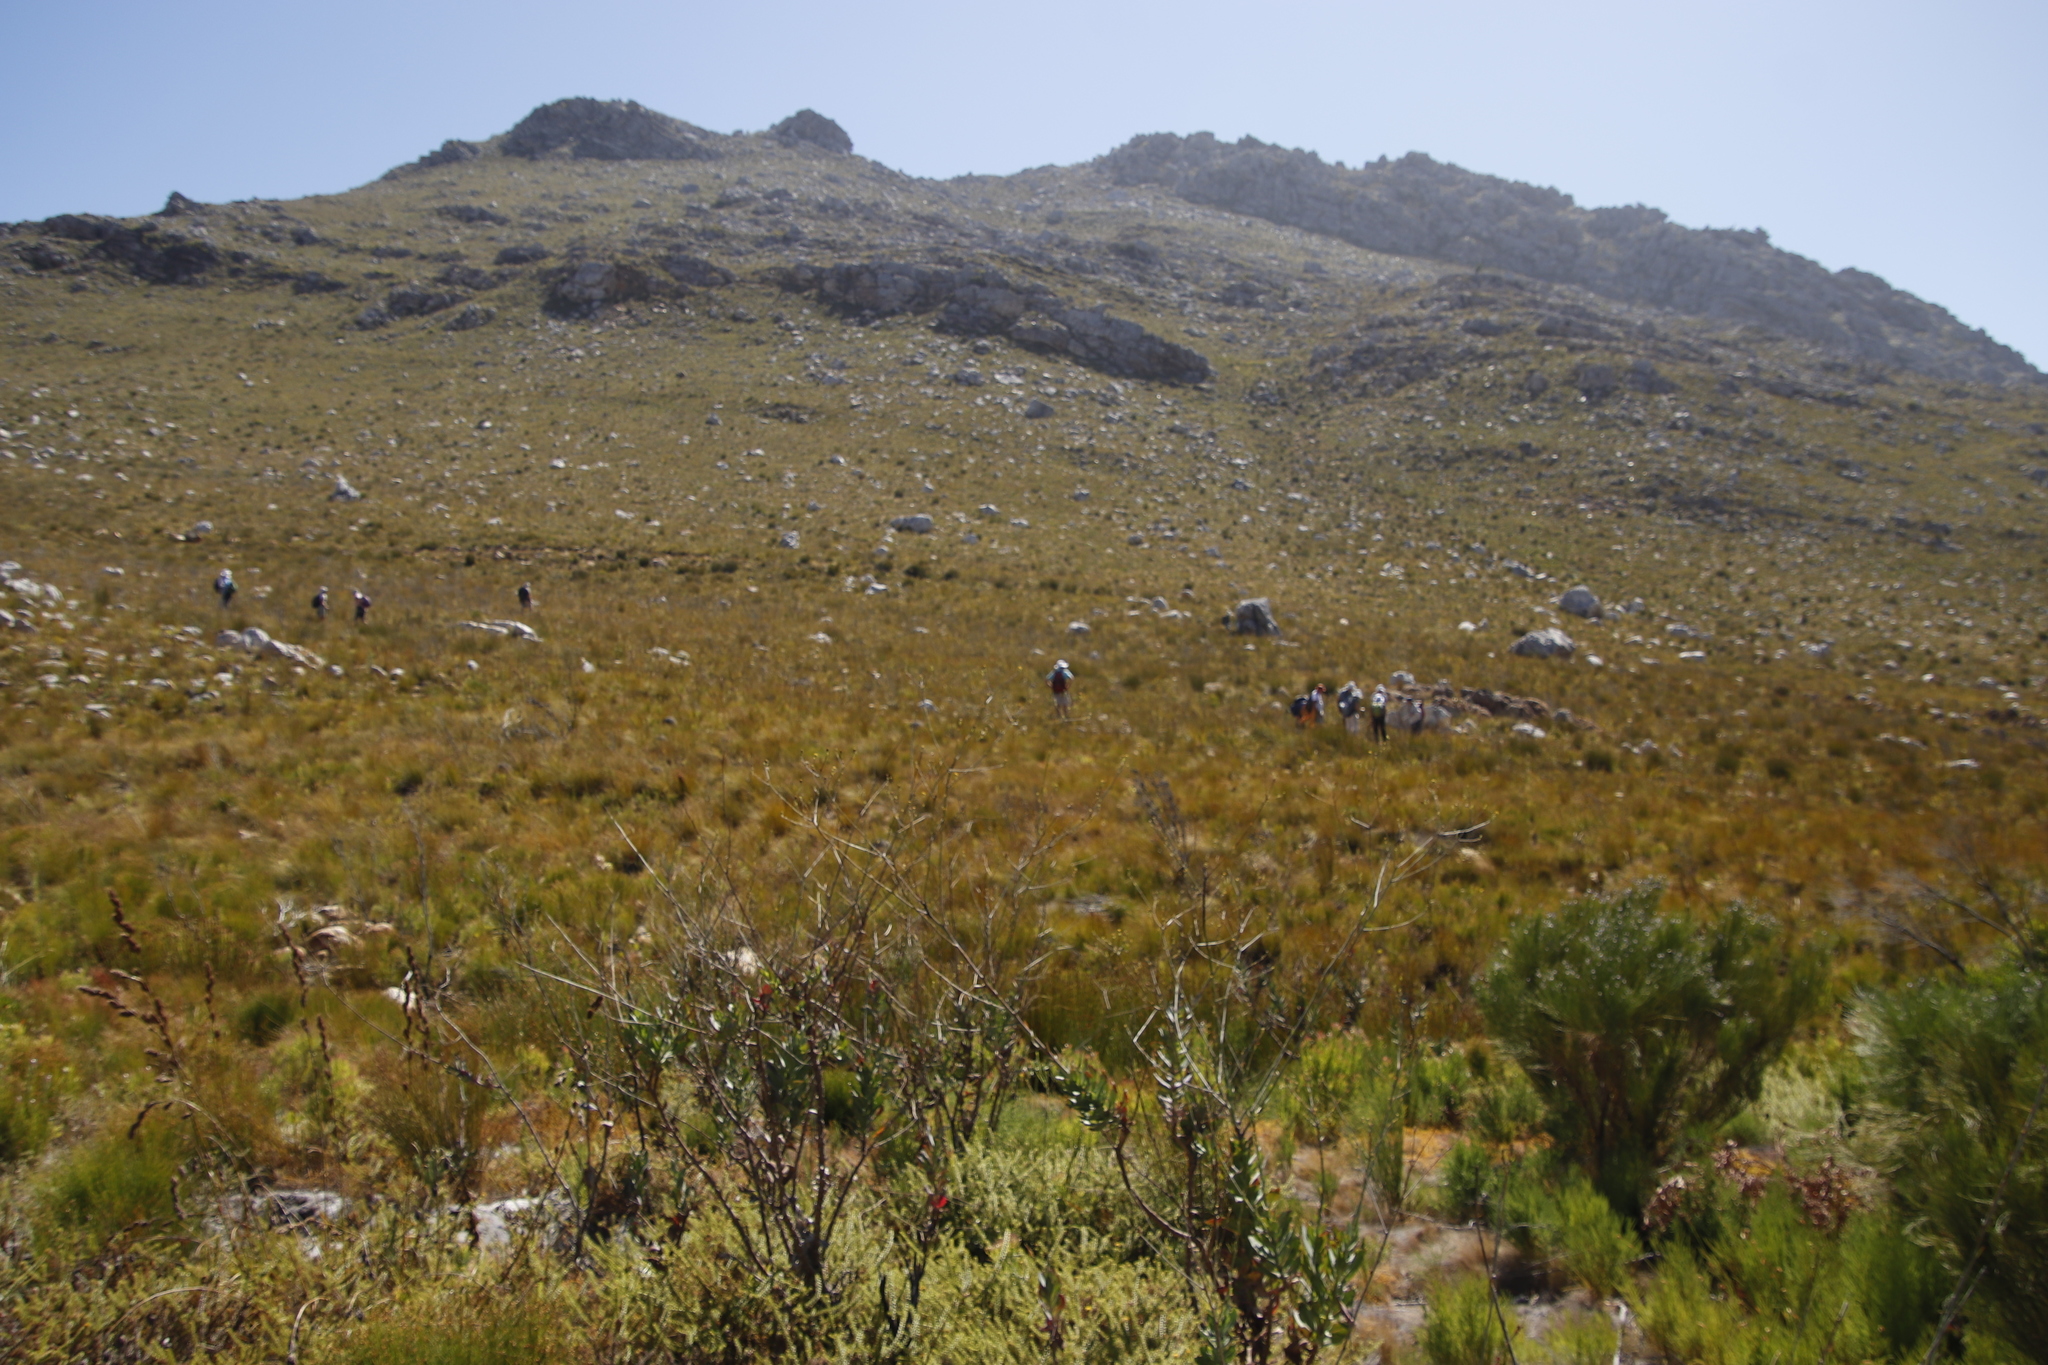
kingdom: Plantae
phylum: Tracheophyta
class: Magnoliopsida
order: Asterales
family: Asteraceae
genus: Othonna
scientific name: Othonna quinquedentata
